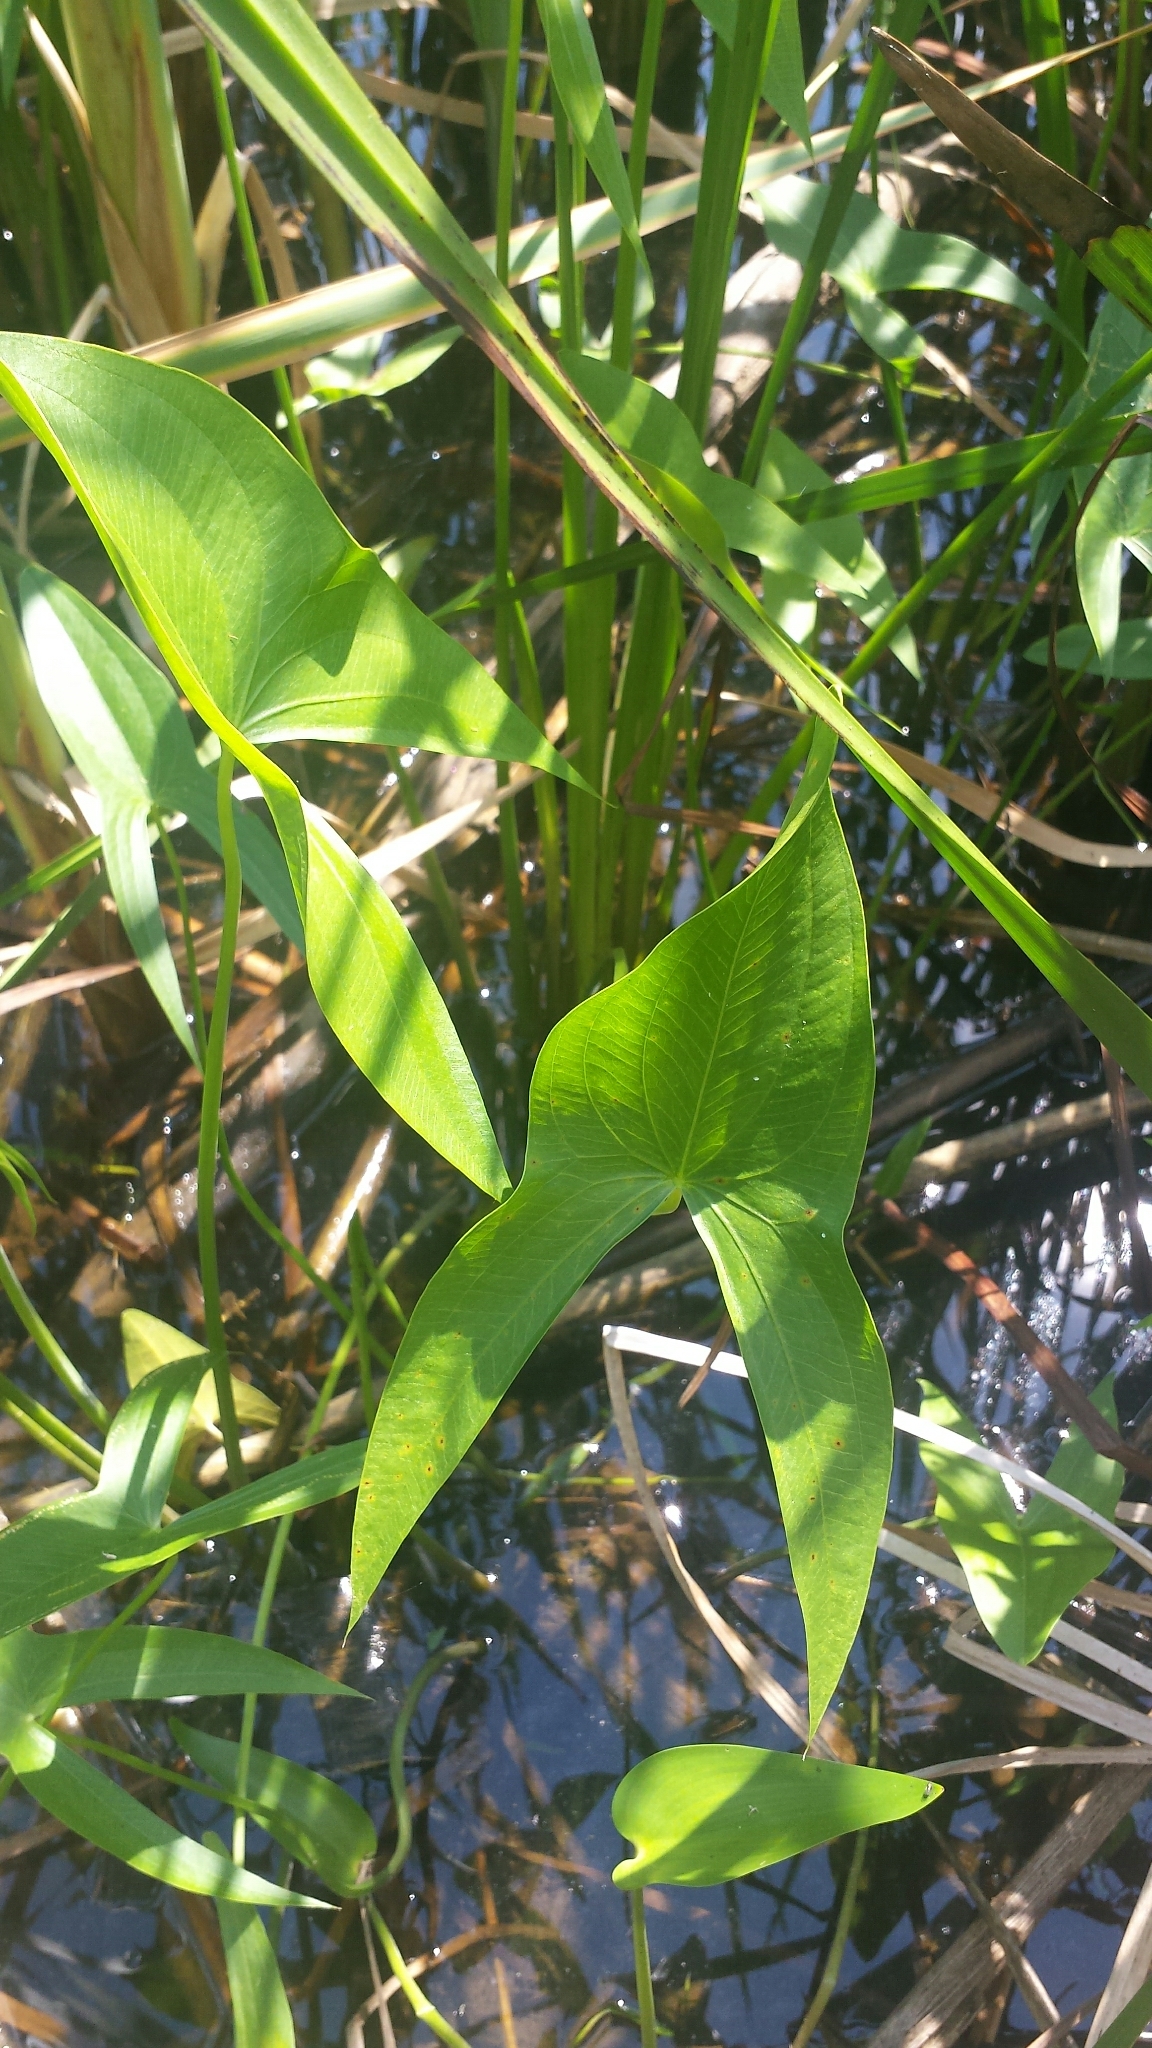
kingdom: Plantae
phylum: Tracheophyta
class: Liliopsida
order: Alismatales
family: Alismataceae
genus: Sagittaria
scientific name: Sagittaria latifolia
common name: Duck-potato
